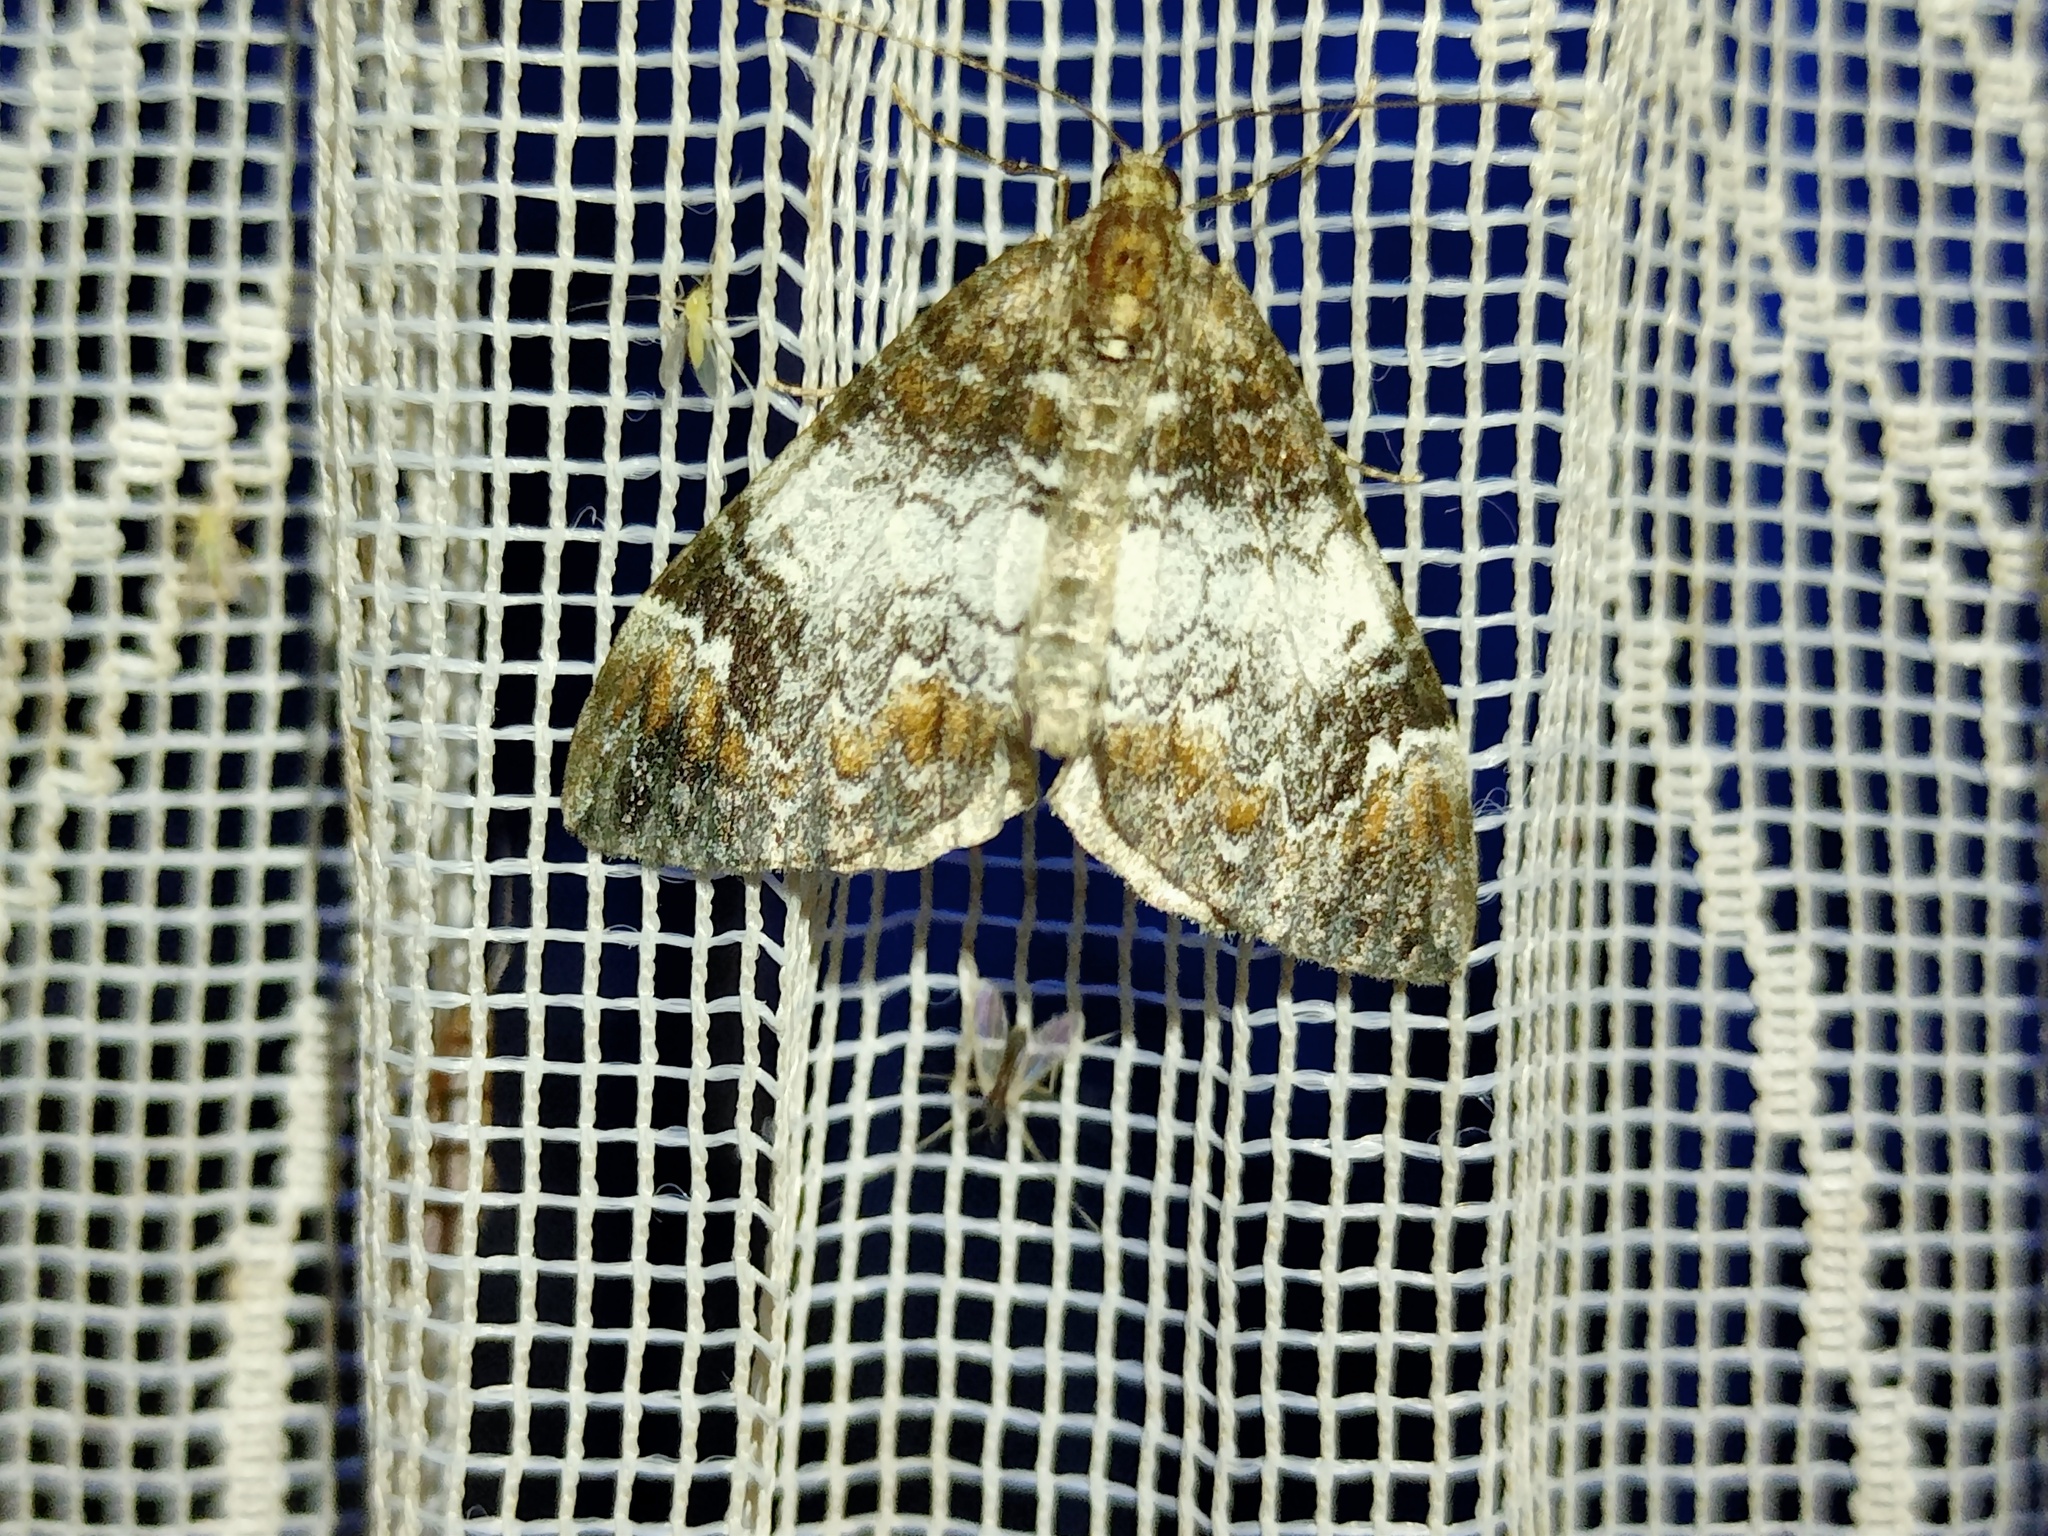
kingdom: Animalia
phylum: Arthropoda
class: Insecta
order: Lepidoptera
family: Geometridae
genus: Dysstroma
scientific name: Dysstroma truncata
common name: Common marbled carpet
